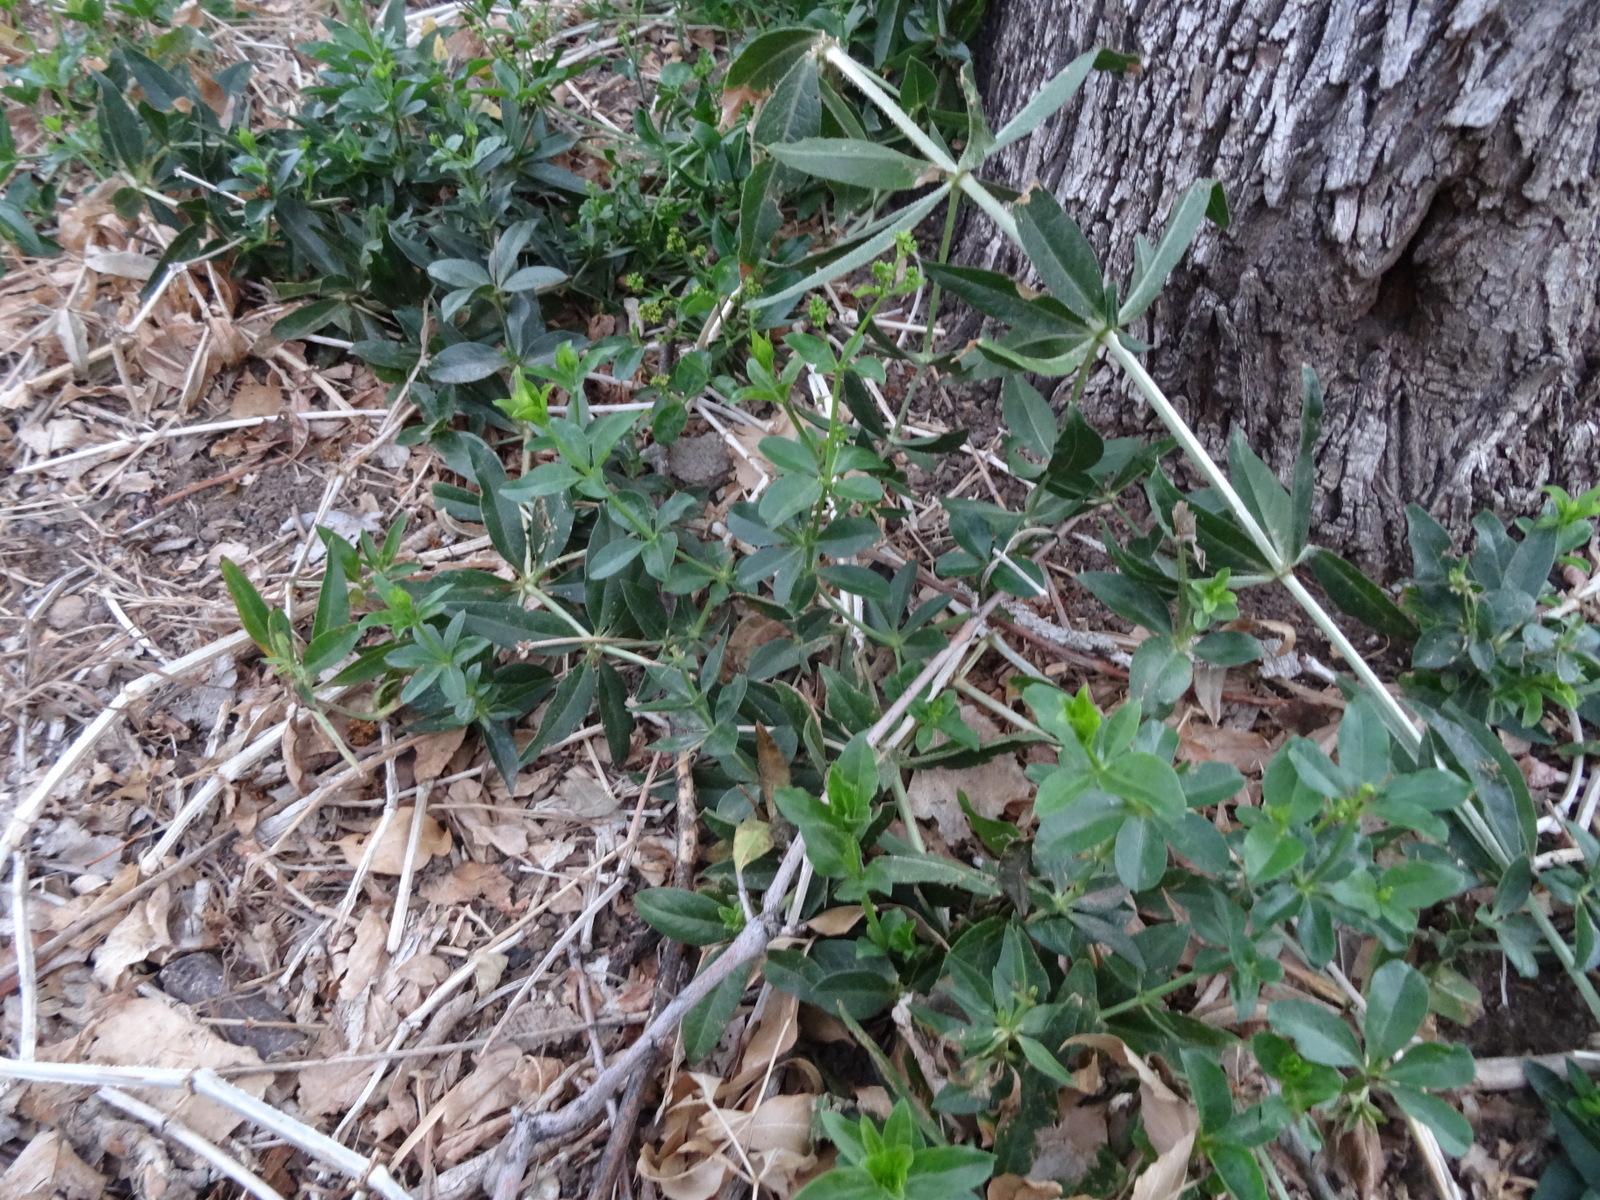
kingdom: Plantae
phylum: Tracheophyta
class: Magnoliopsida
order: Gentianales
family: Rubiaceae
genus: Rubia
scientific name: Rubia tinctorum
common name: Dyer's madder
